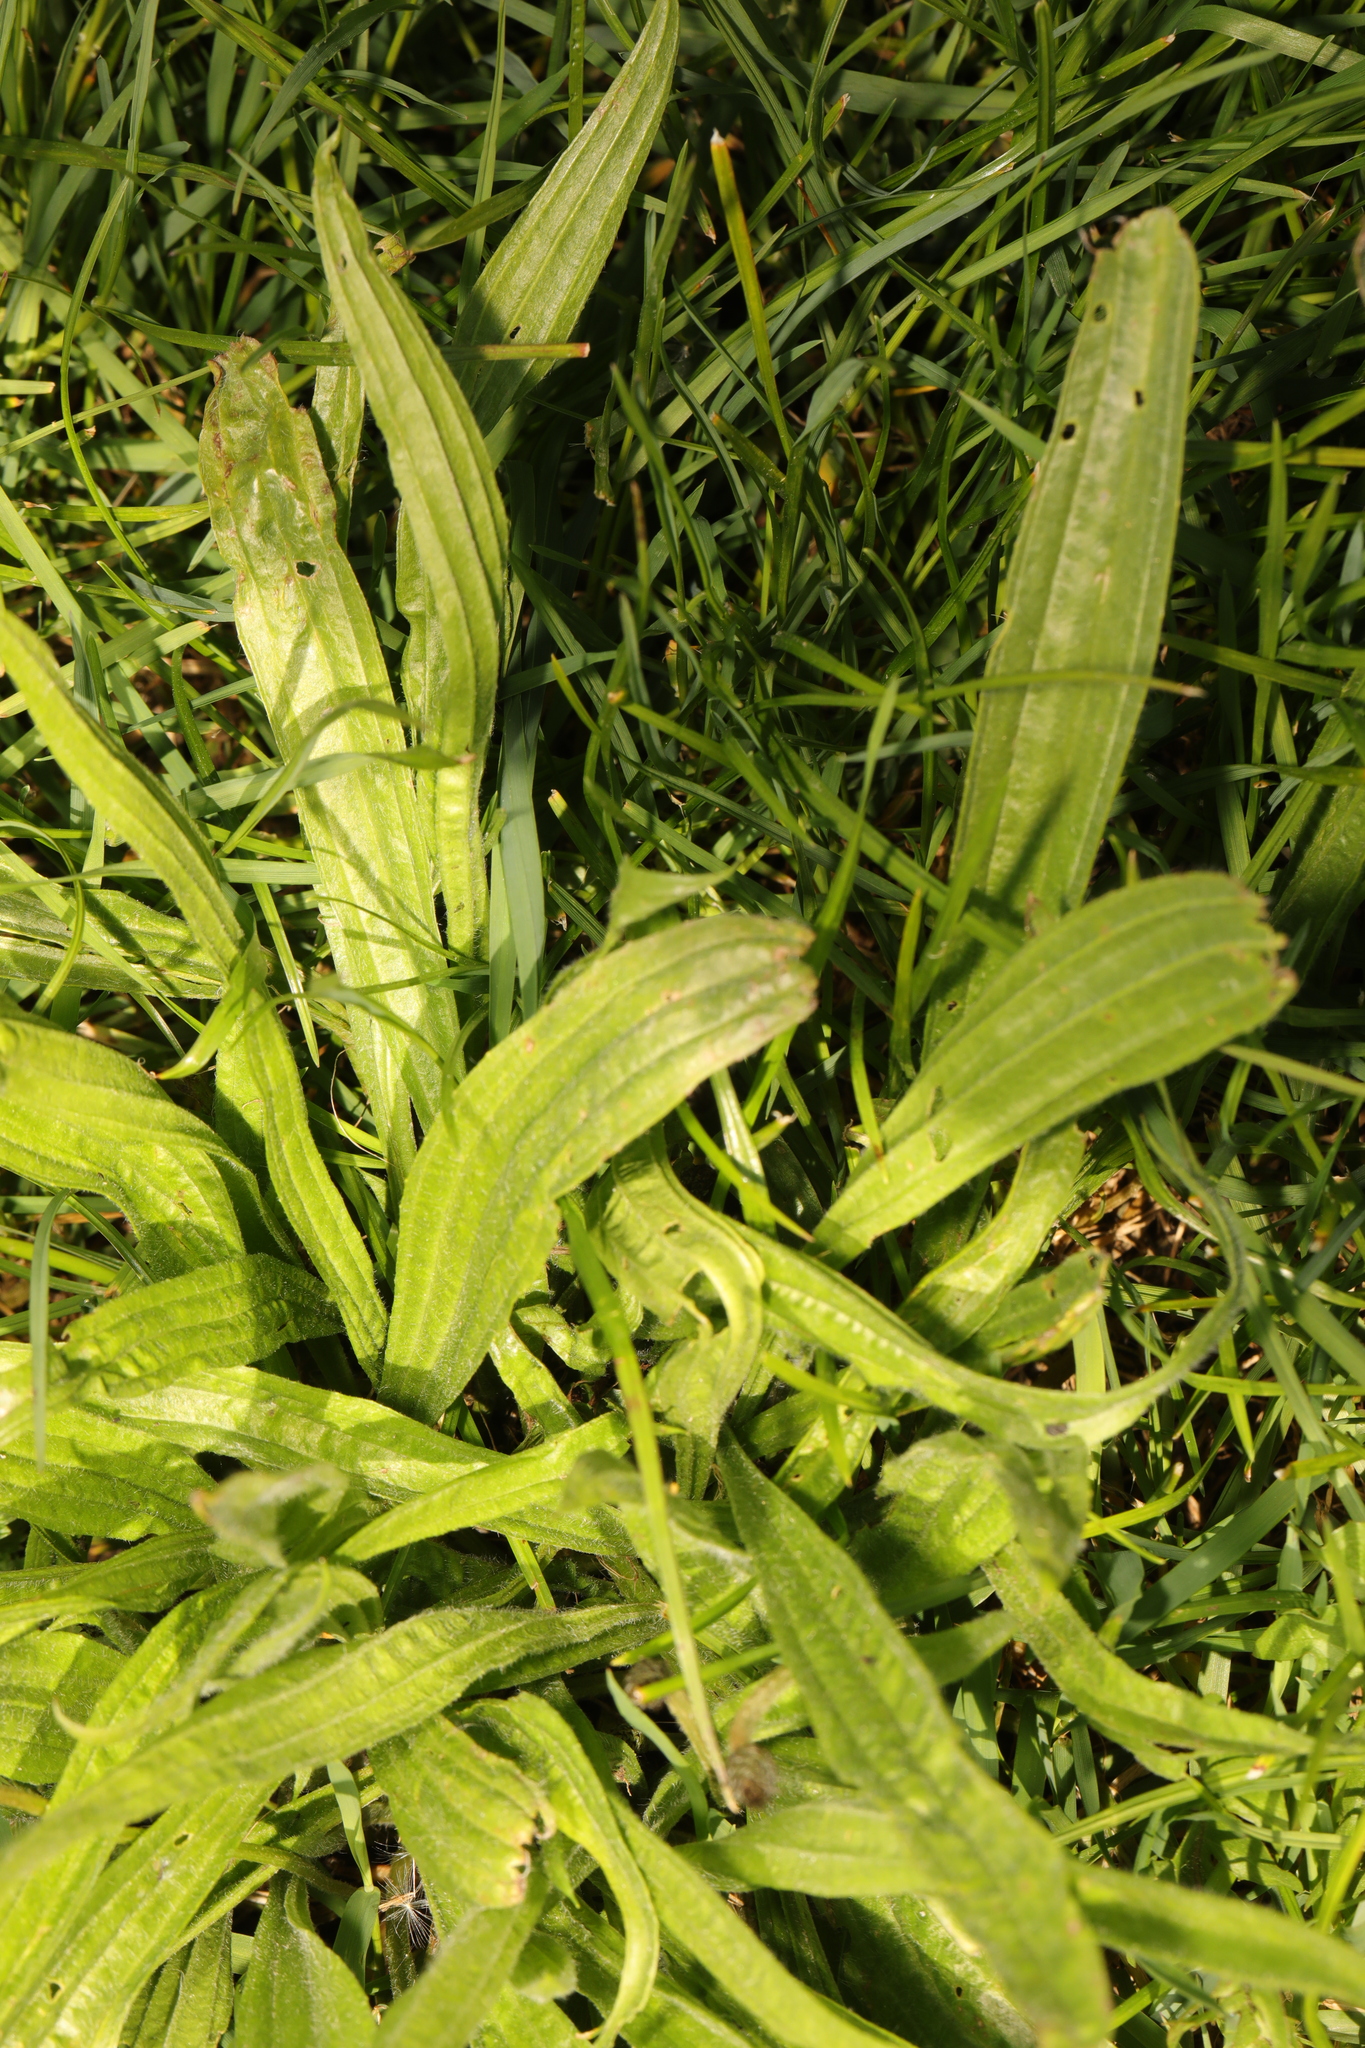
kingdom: Plantae
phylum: Tracheophyta
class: Magnoliopsida
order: Lamiales
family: Plantaginaceae
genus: Plantago
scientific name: Plantago lanceolata
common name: Ribwort plantain
